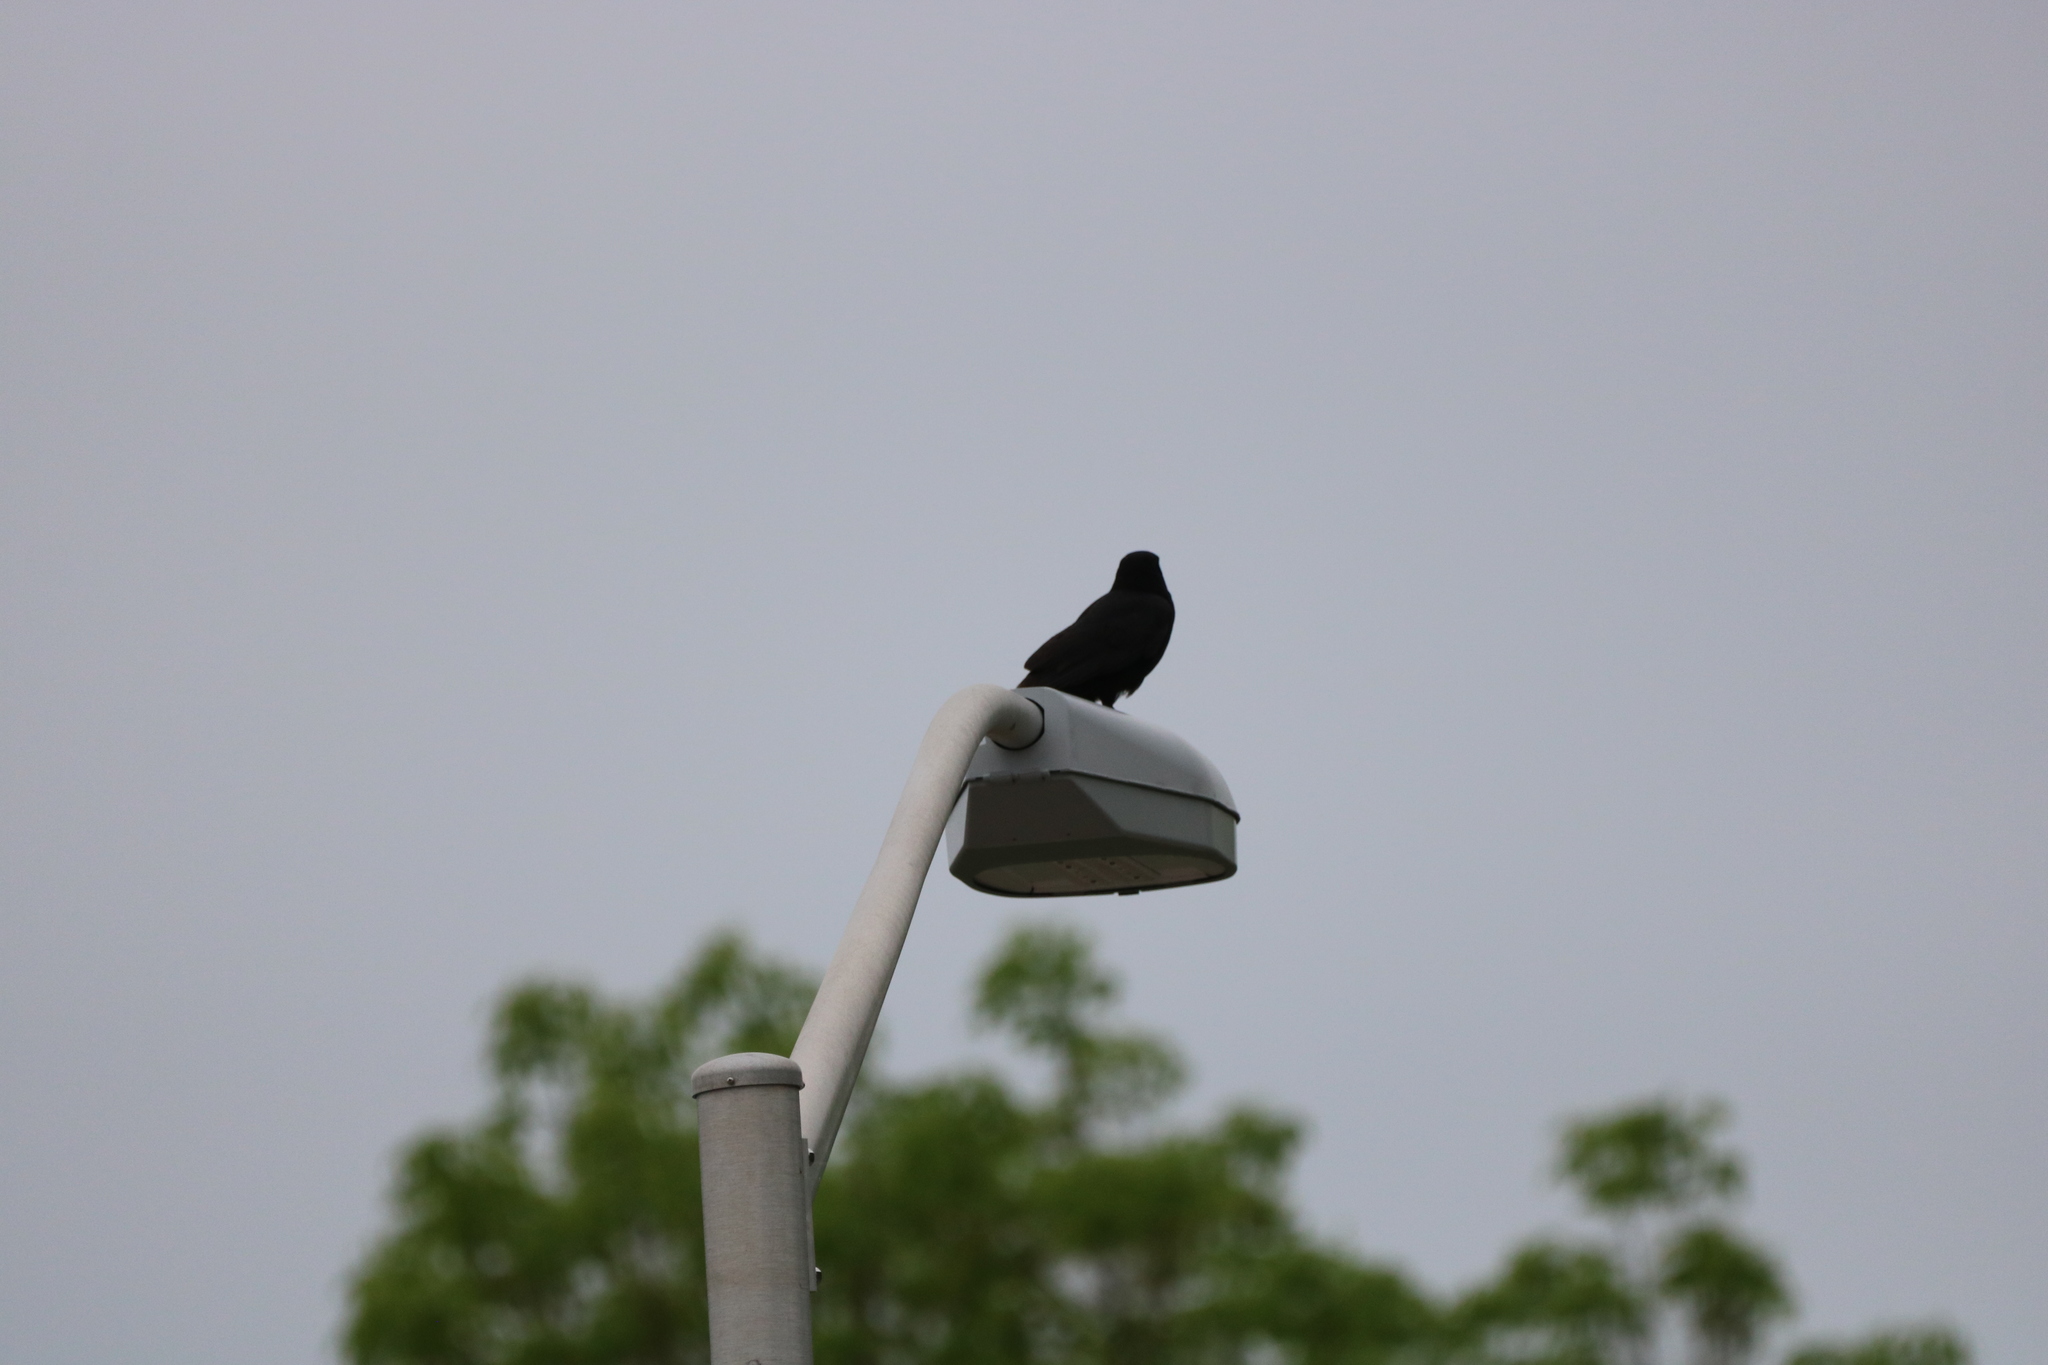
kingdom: Animalia
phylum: Chordata
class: Aves
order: Passeriformes
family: Corvidae
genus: Corvus
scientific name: Corvus brachyrhynchos
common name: American crow
